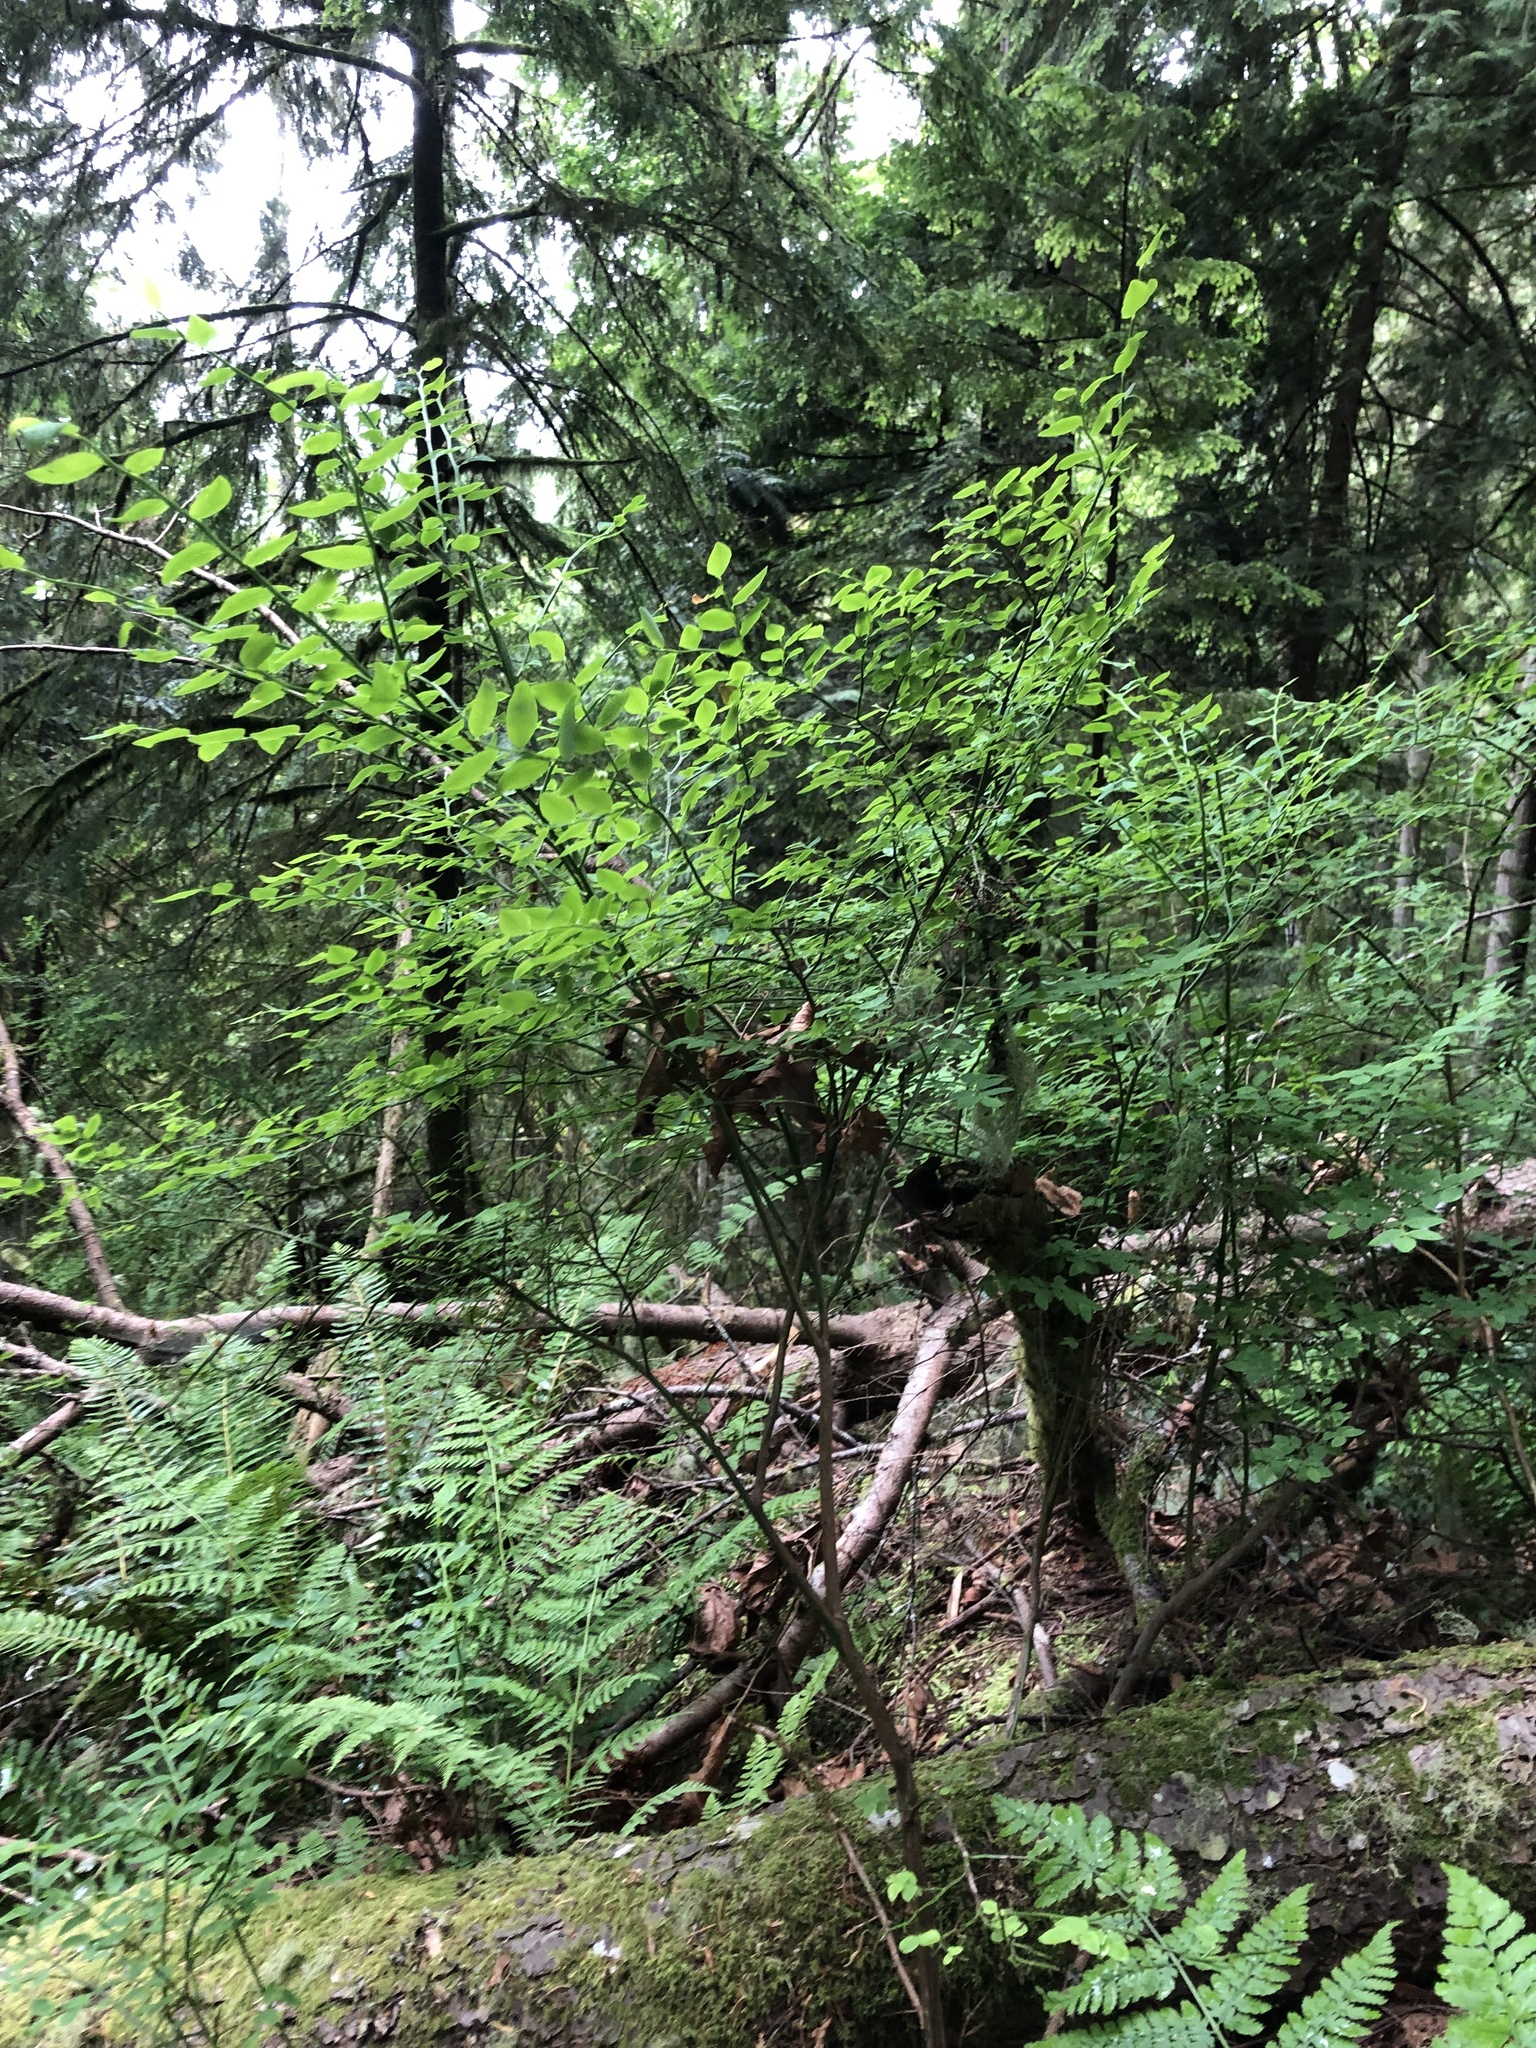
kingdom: Plantae
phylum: Tracheophyta
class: Magnoliopsida
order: Ericales
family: Ericaceae
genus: Vaccinium
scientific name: Vaccinium parvifolium
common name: Red-huckleberry
